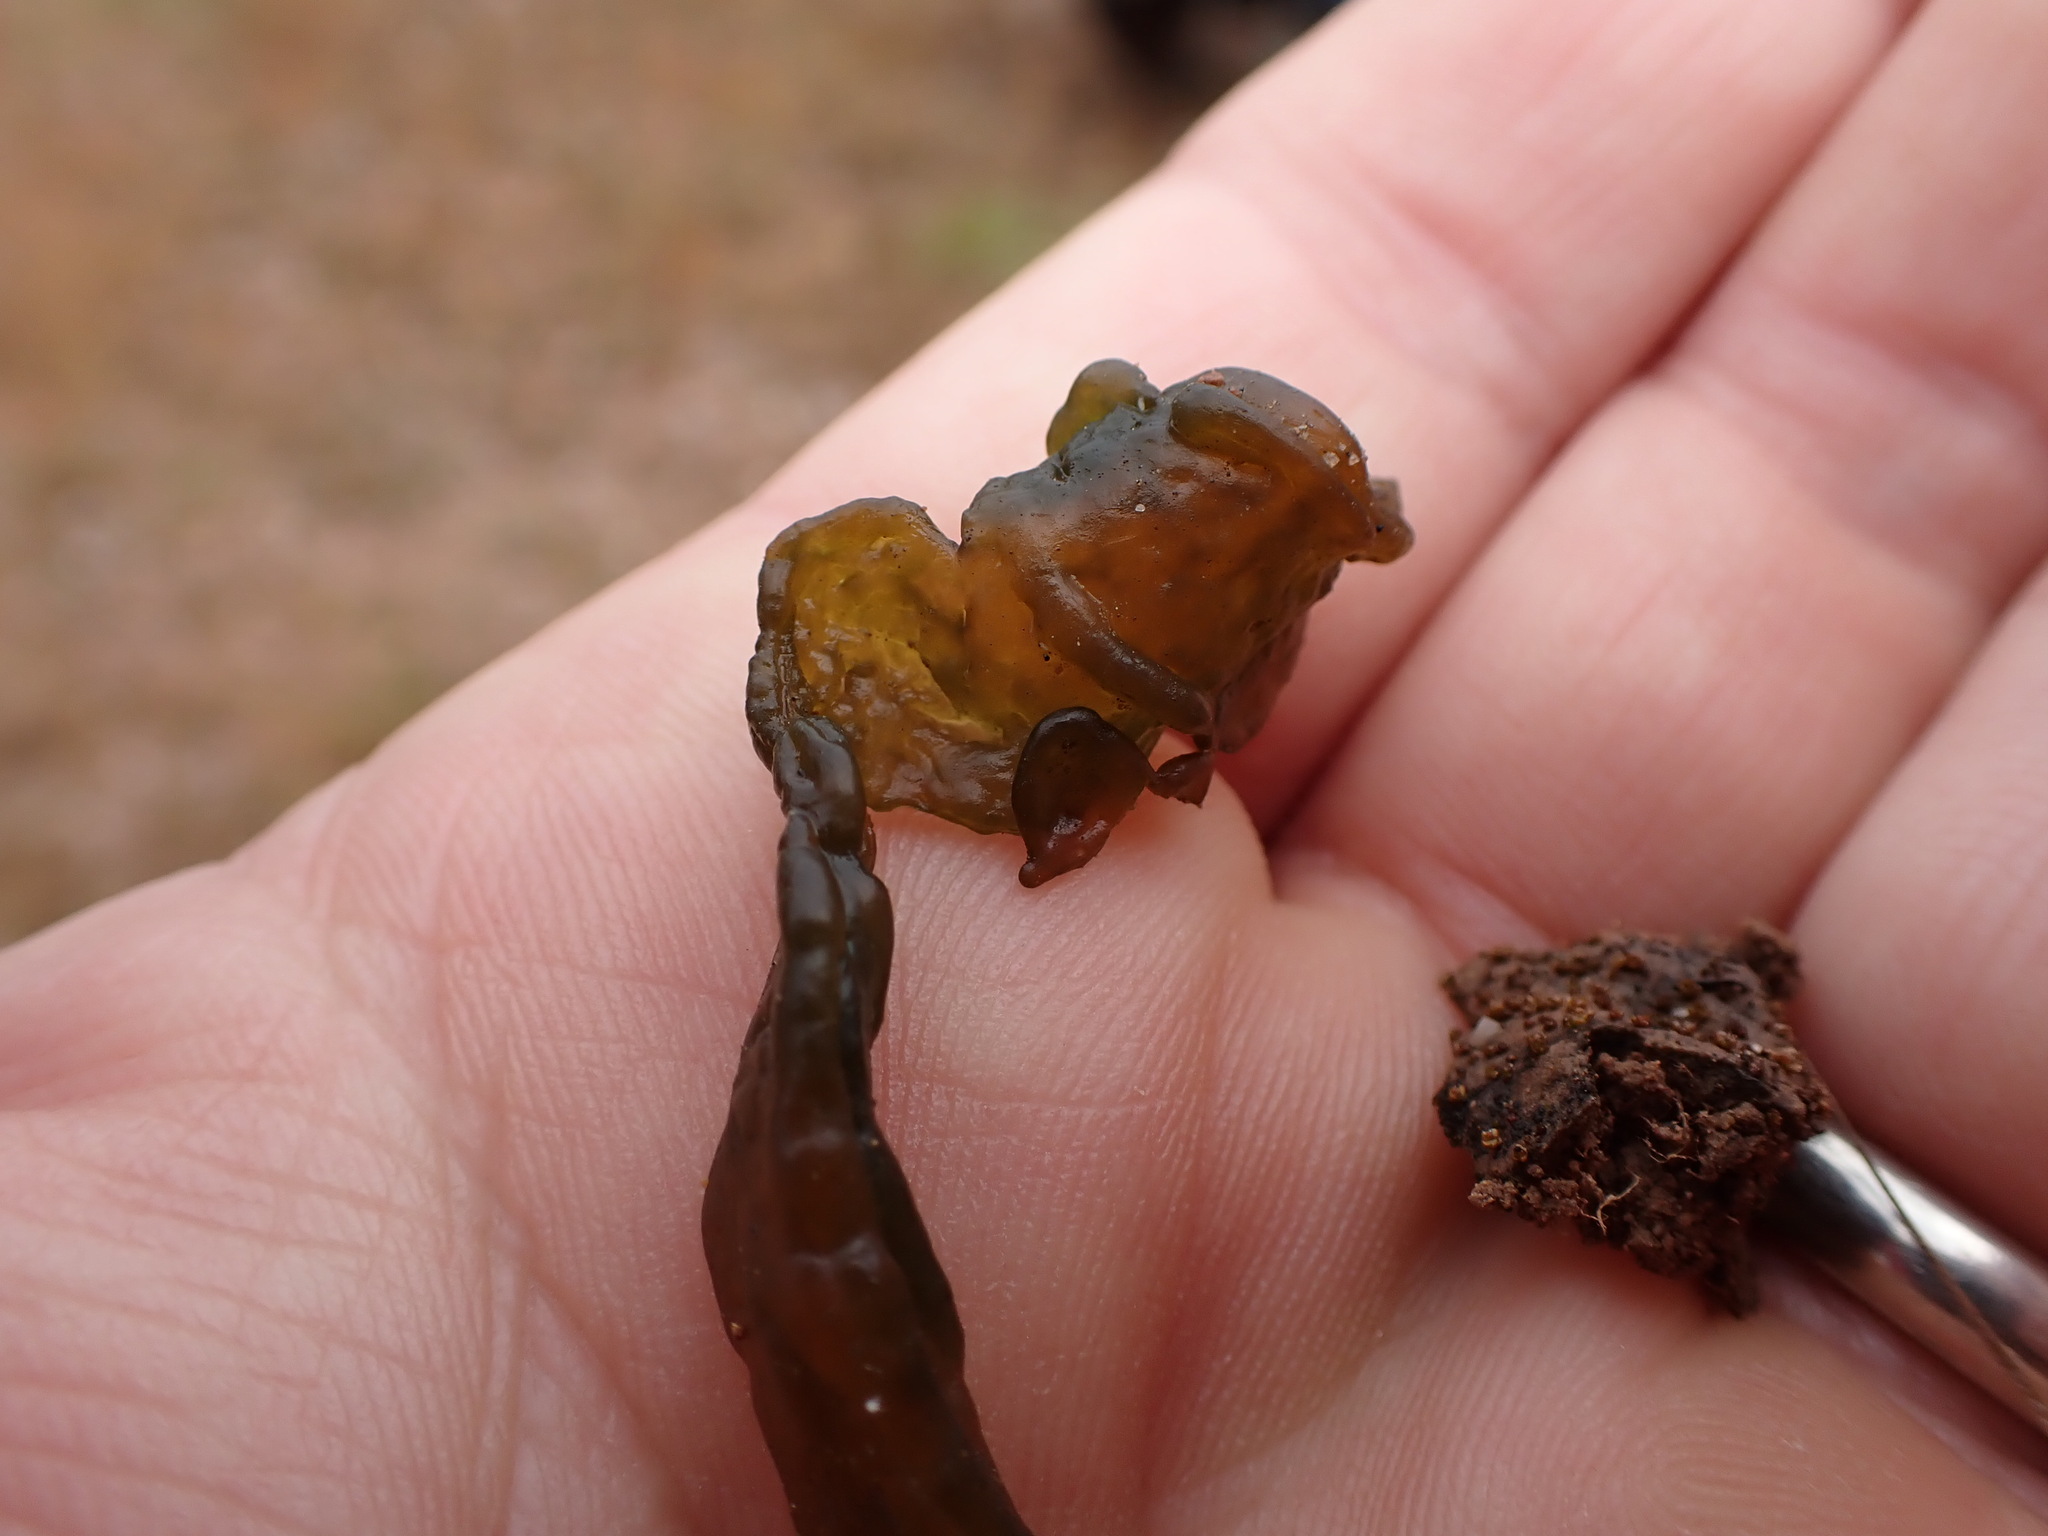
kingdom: Bacteria
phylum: Cyanobacteria
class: Cyanobacteriia
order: Cyanobacteriales
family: Nostocaceae
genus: Nostoc
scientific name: Nostoc commune
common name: Star jelly
